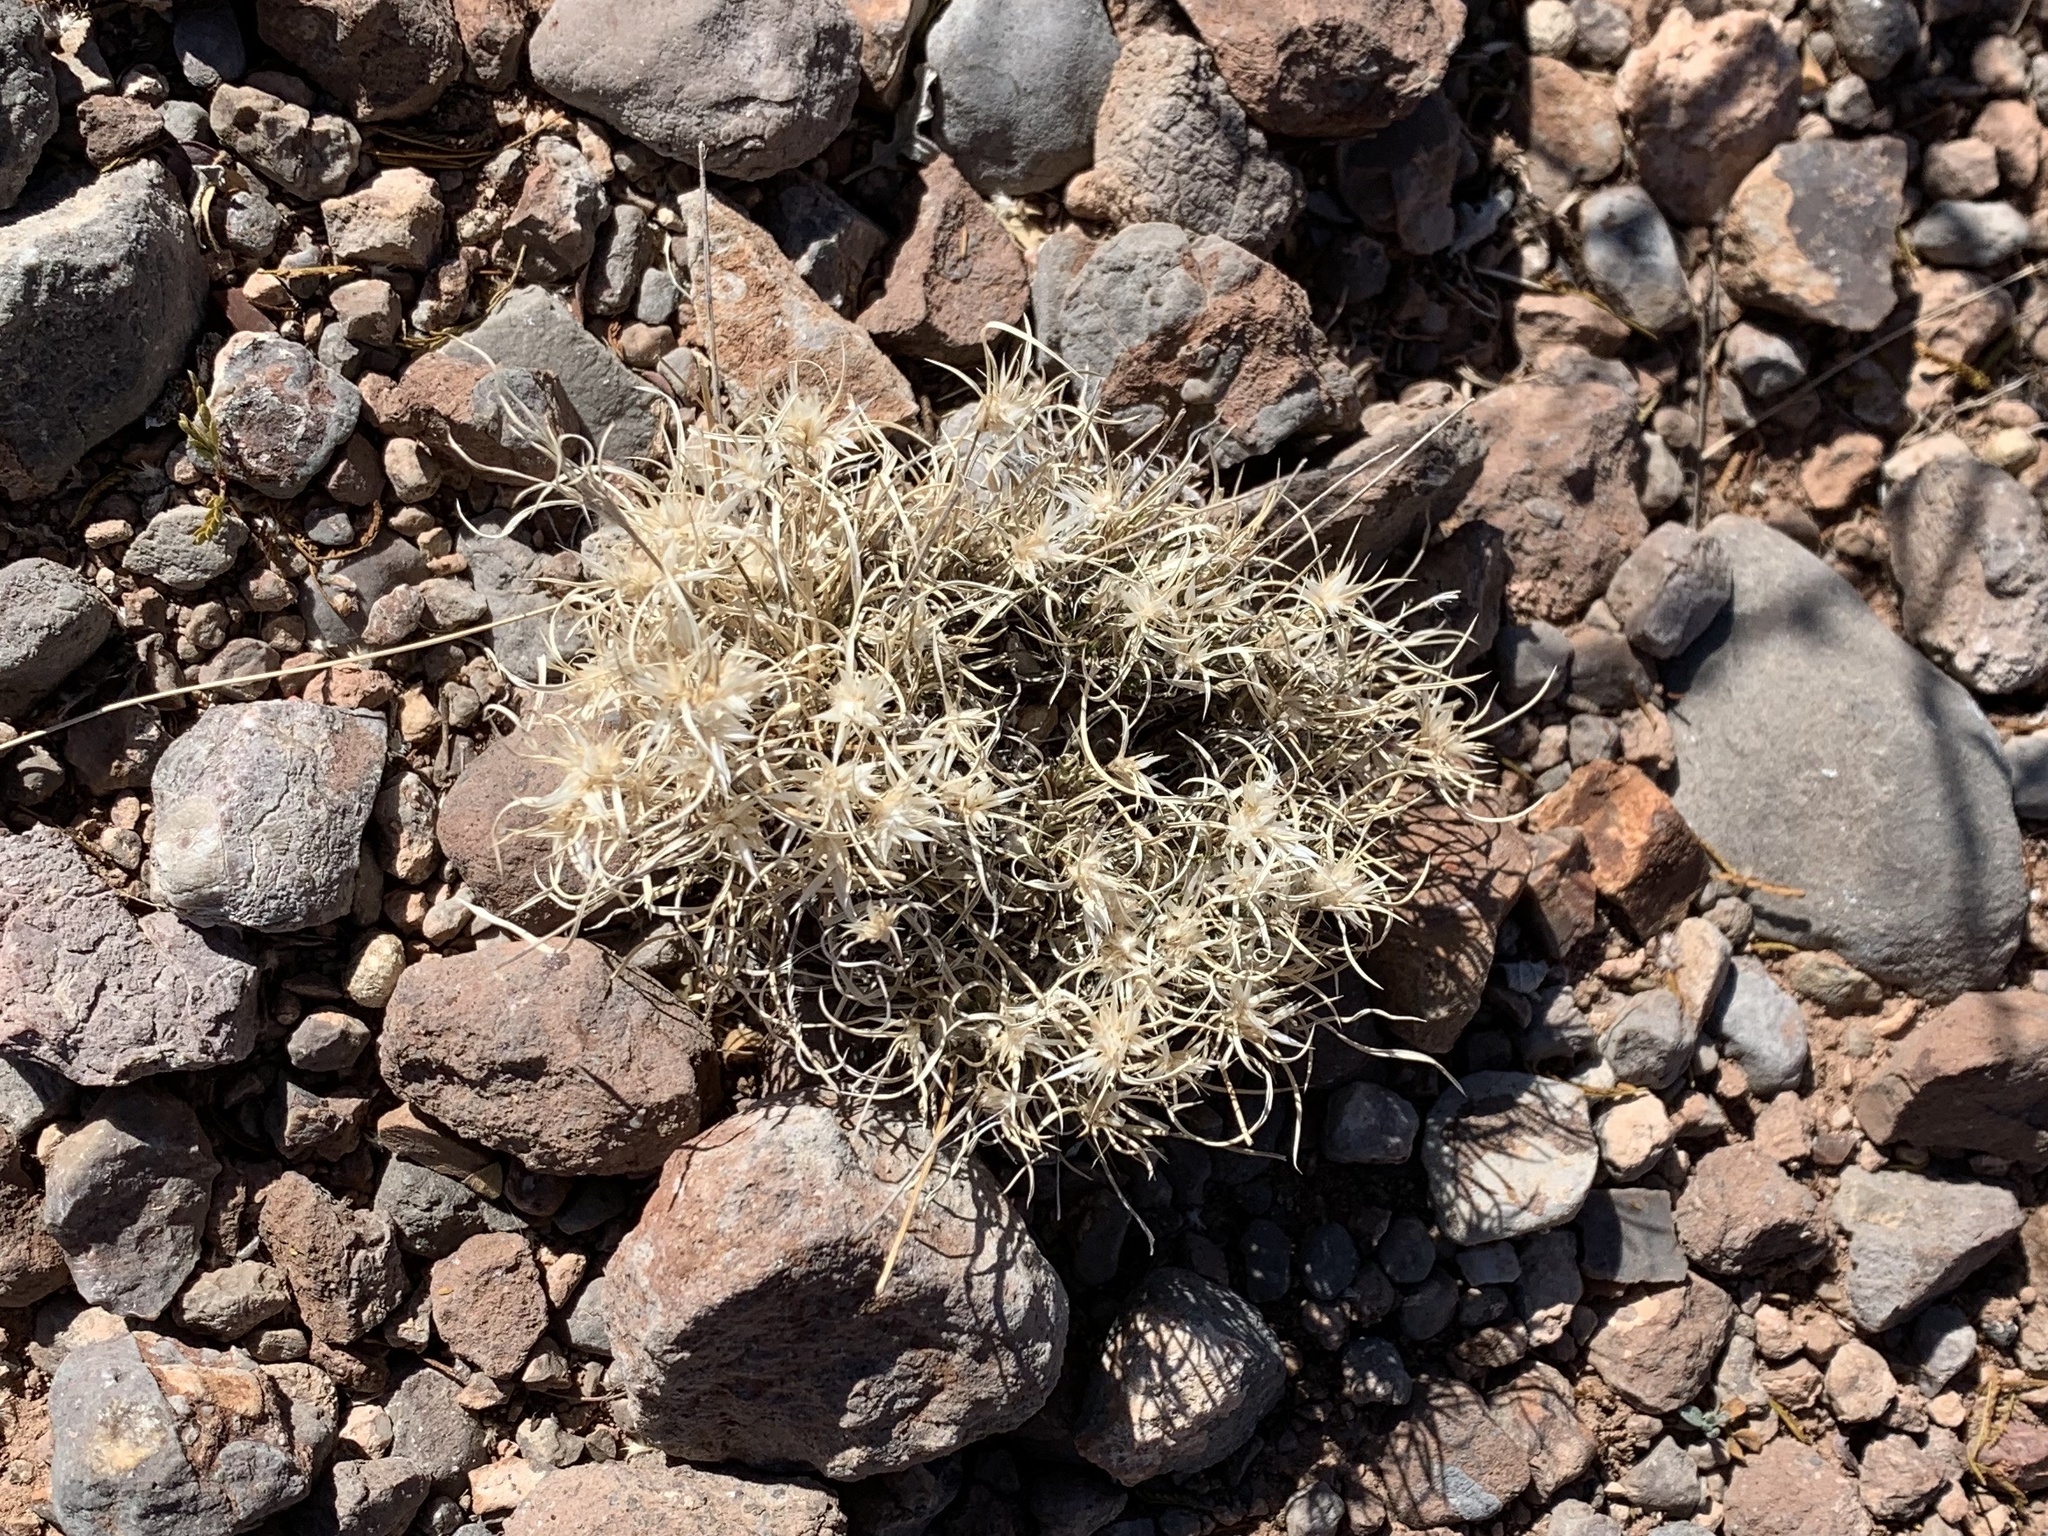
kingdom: Plantae
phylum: Tracheophyta
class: Liliopsida
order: Poales
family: Poaceae
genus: Dasyochloa
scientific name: Dasyochloa pulchella
